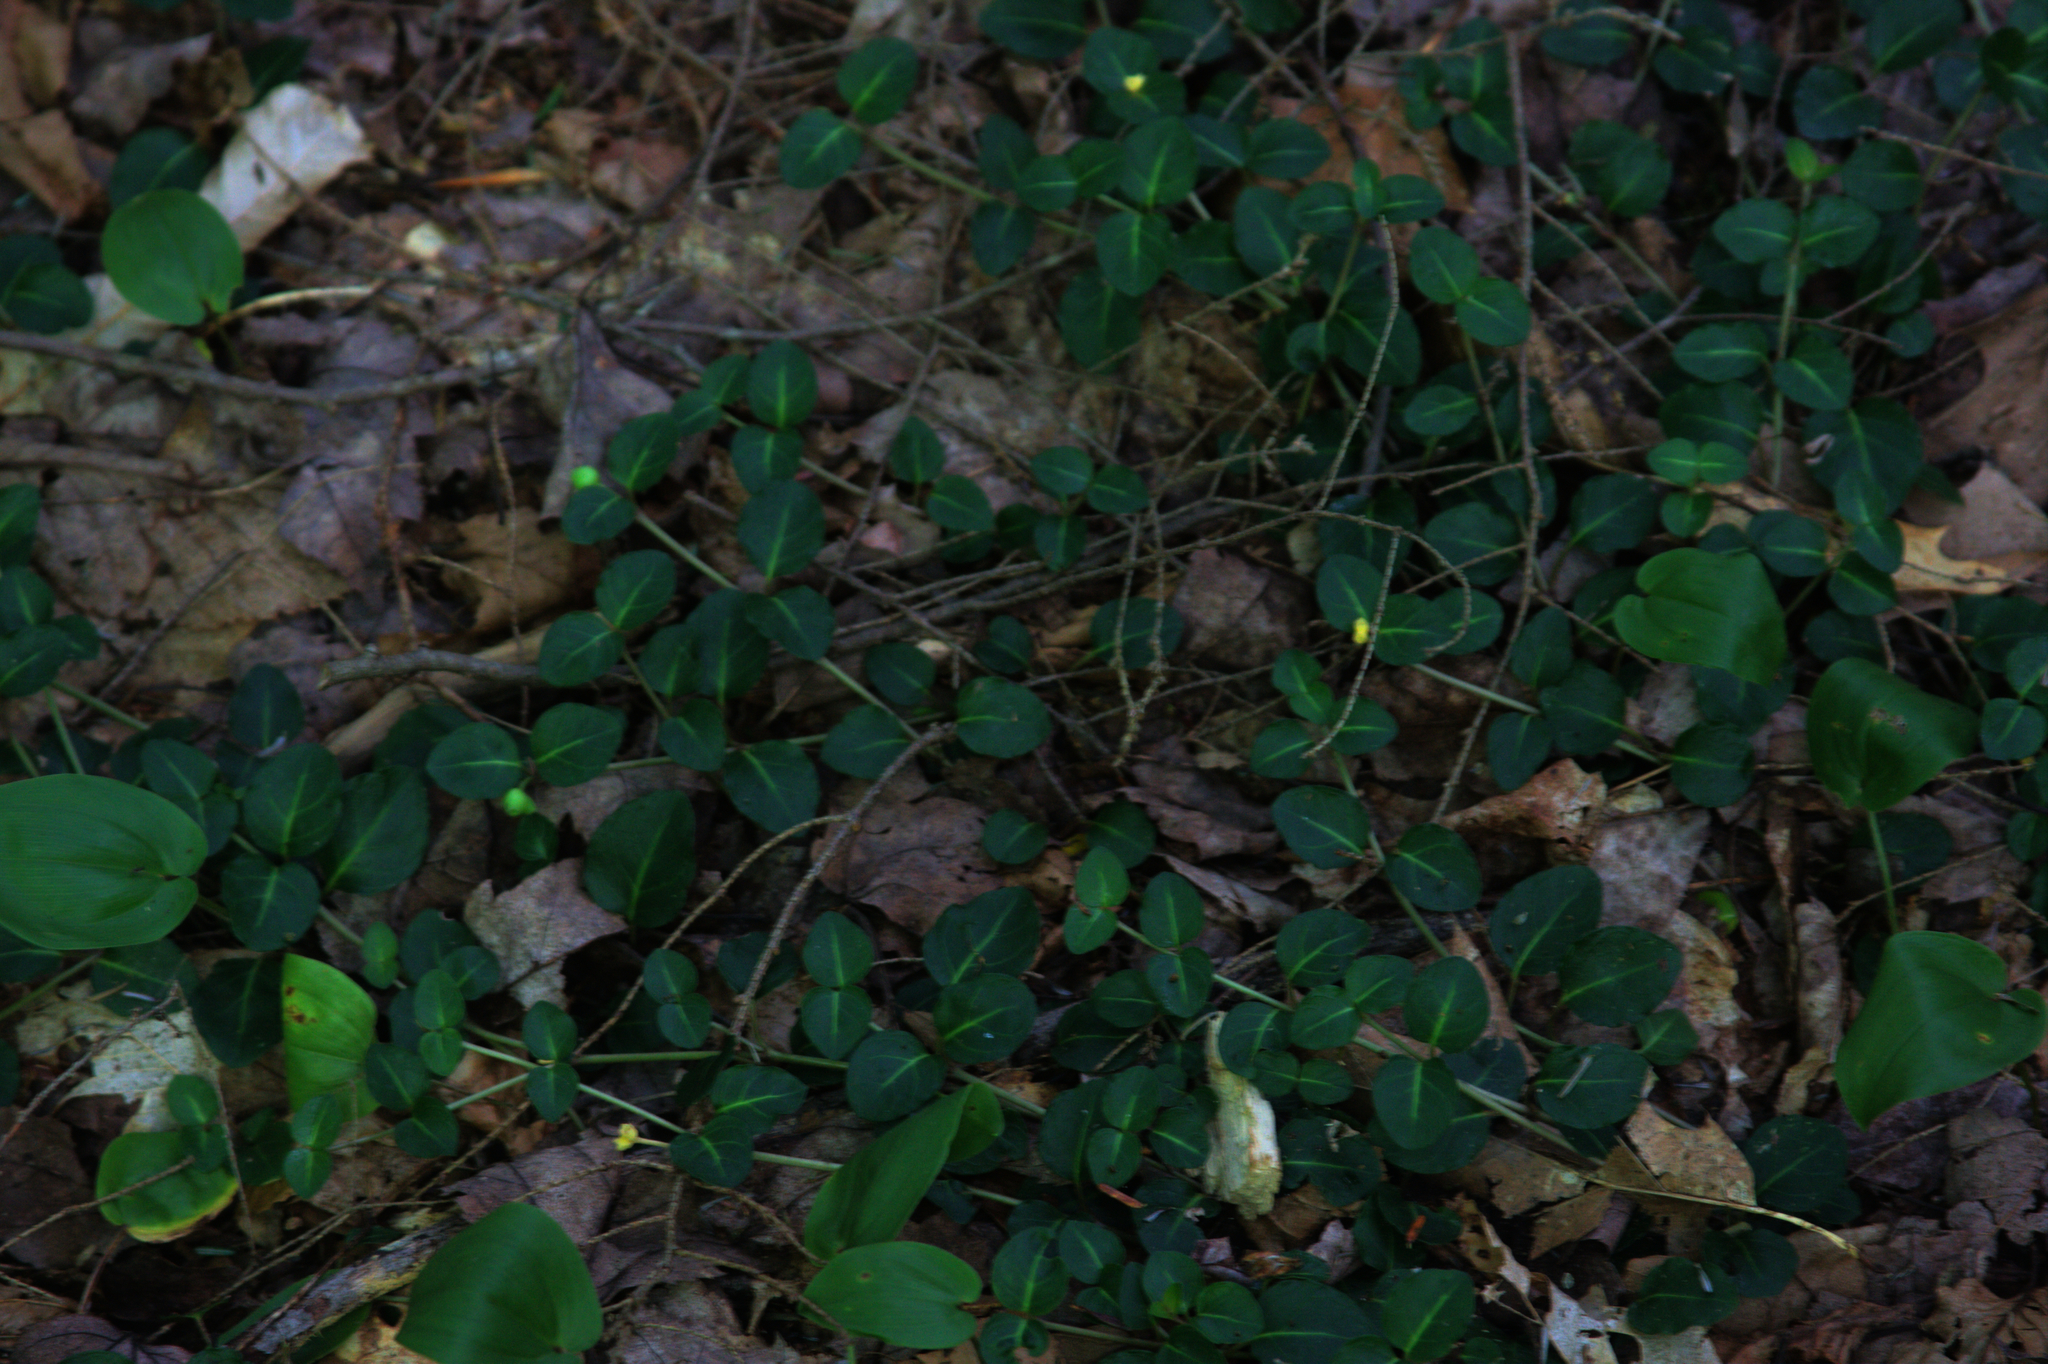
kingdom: Plantae
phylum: Tracheophyta
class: Magnoliopsida
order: Gentianales
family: Rubiaceae
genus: Mitchella
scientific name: Mitchella repens
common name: Partridge-berry
